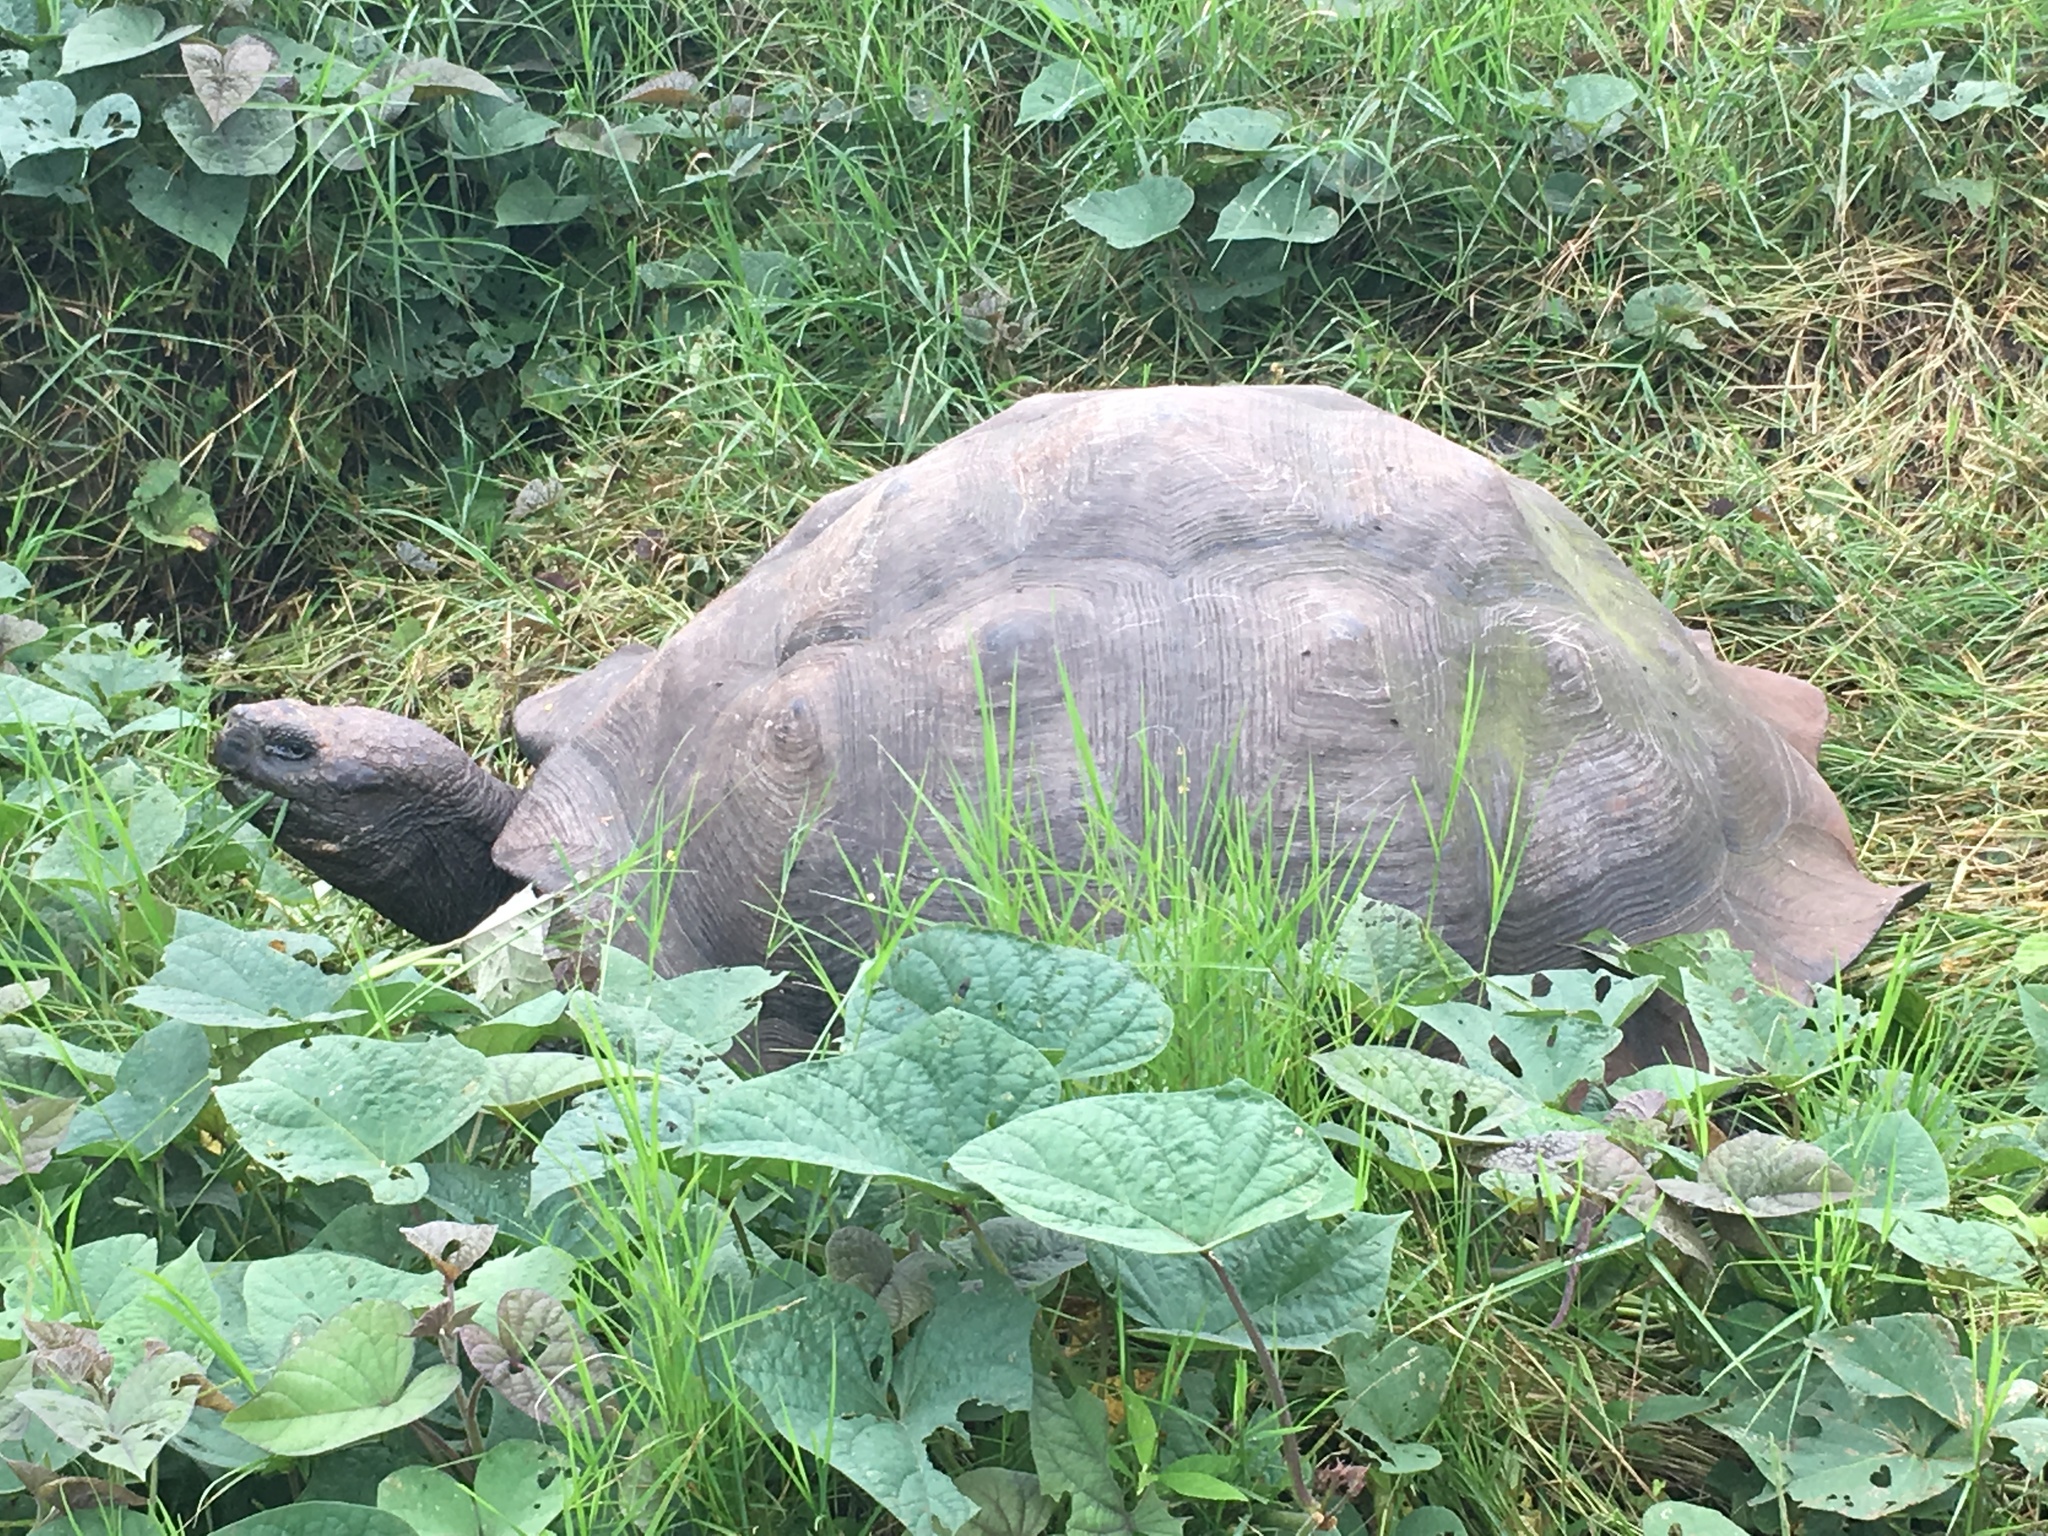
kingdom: Animalia
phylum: Chordata
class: Testudines
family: Testudinidae
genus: Chelonoidis
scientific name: Chelonoidis porteri
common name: Indefatigable island giant tortoise
